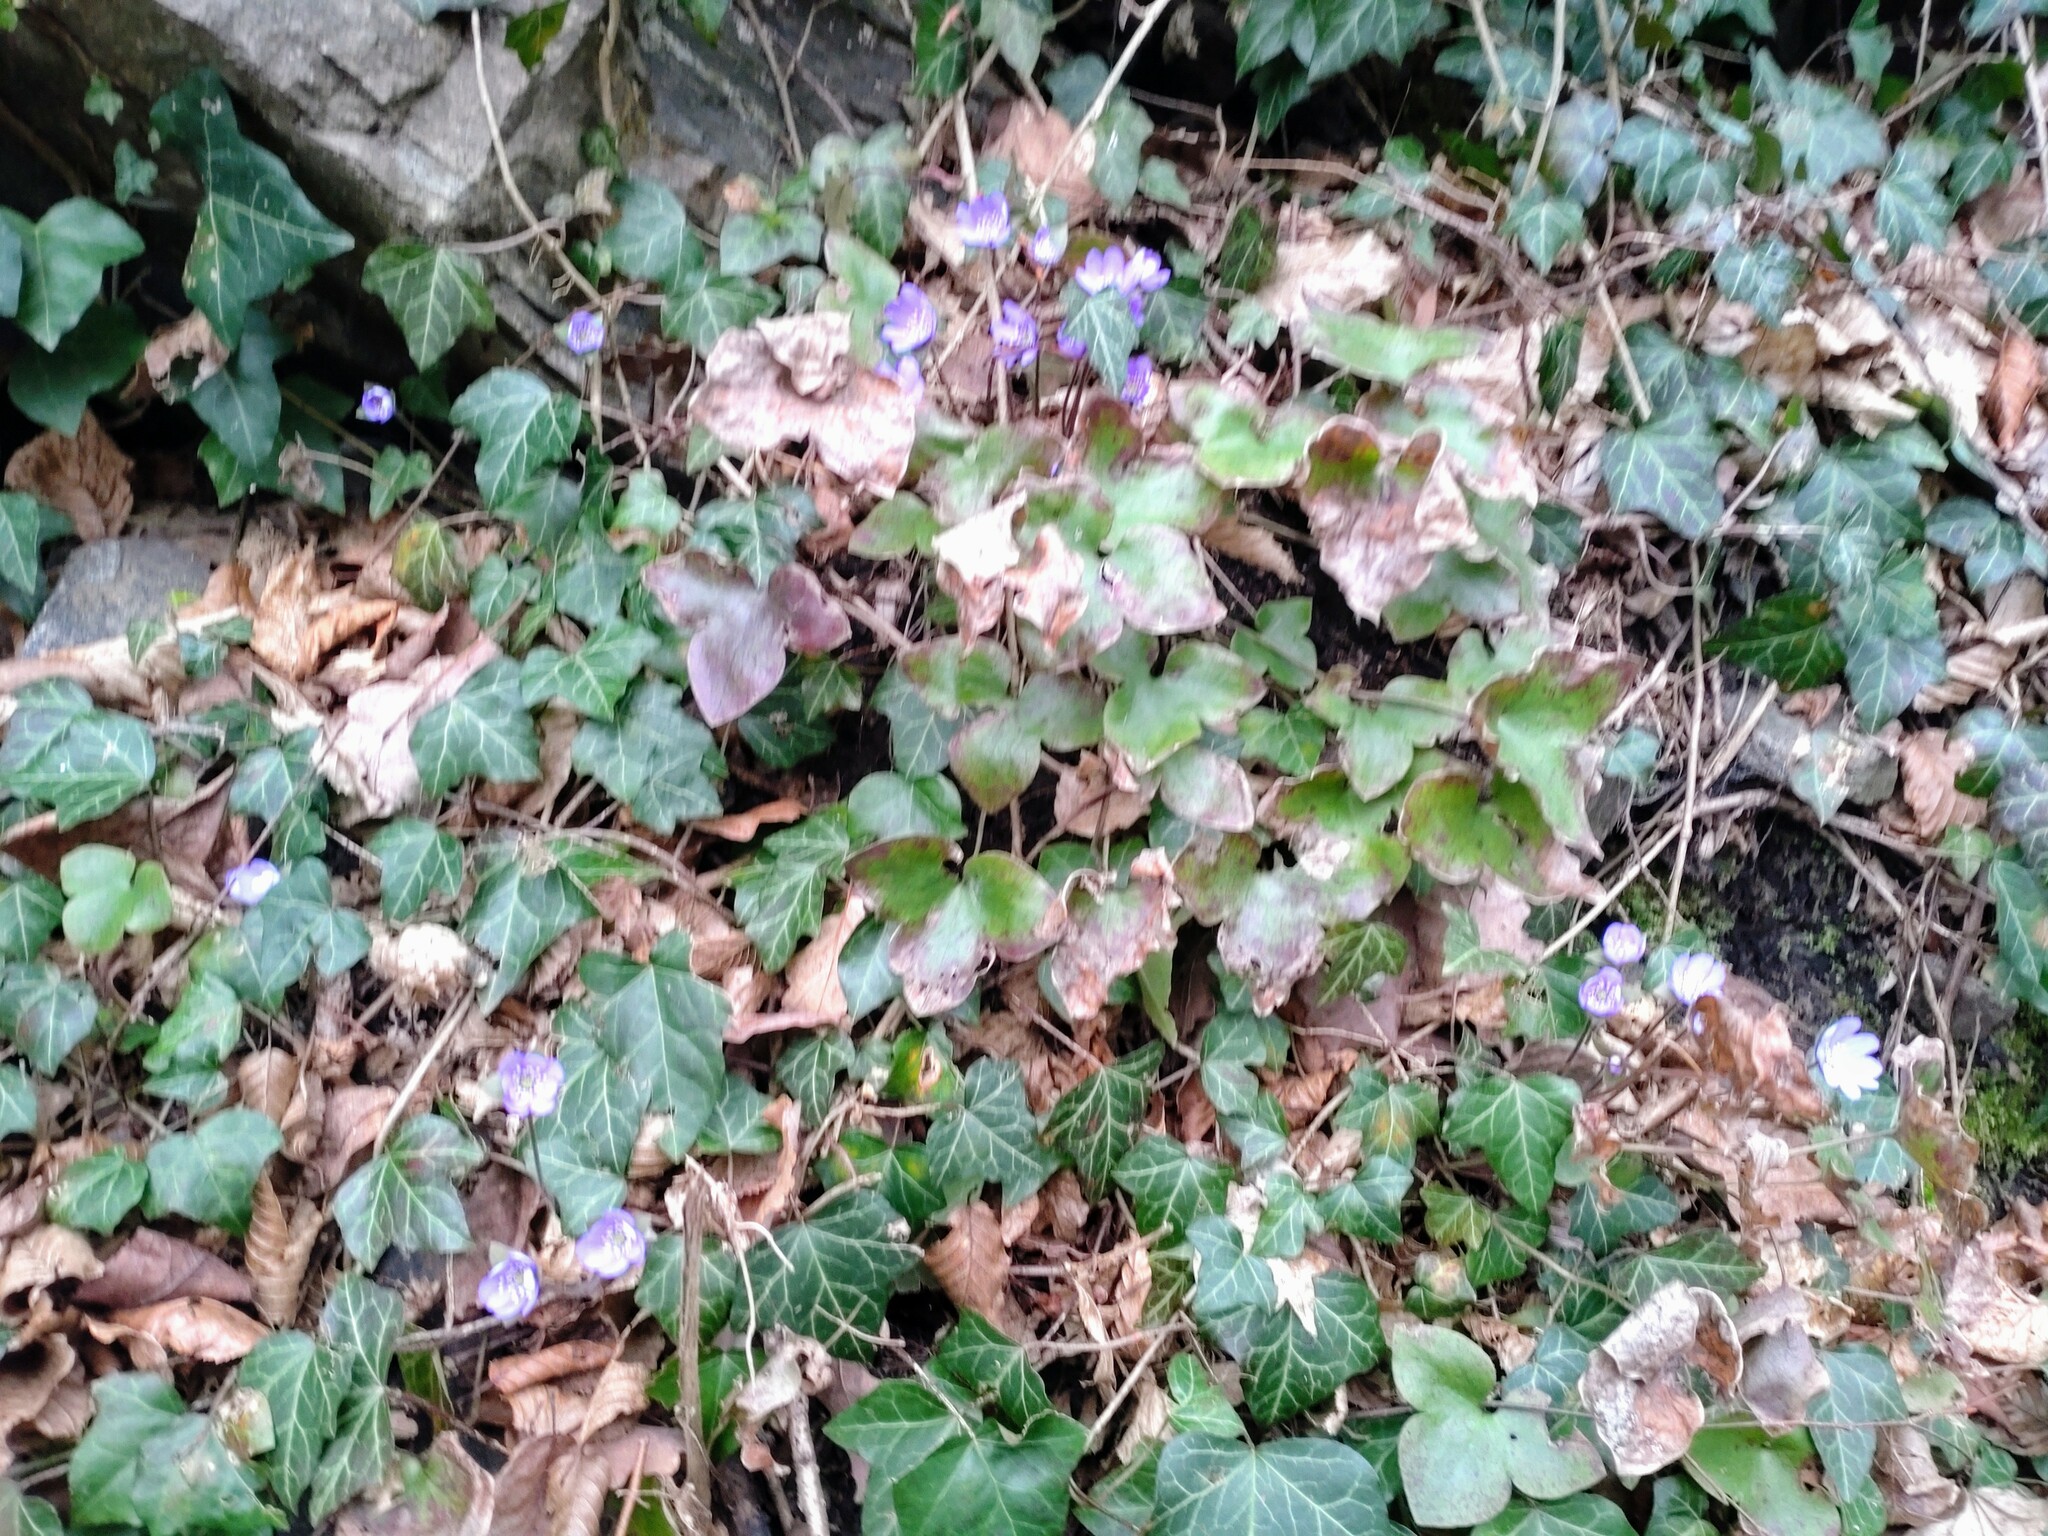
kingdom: Plantae
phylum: Tracheophyta
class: Magnoliopsida
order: Ranunculales
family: Ranunculaceae
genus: Hepatica
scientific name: Hepatica nobilis
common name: Liverleaf
